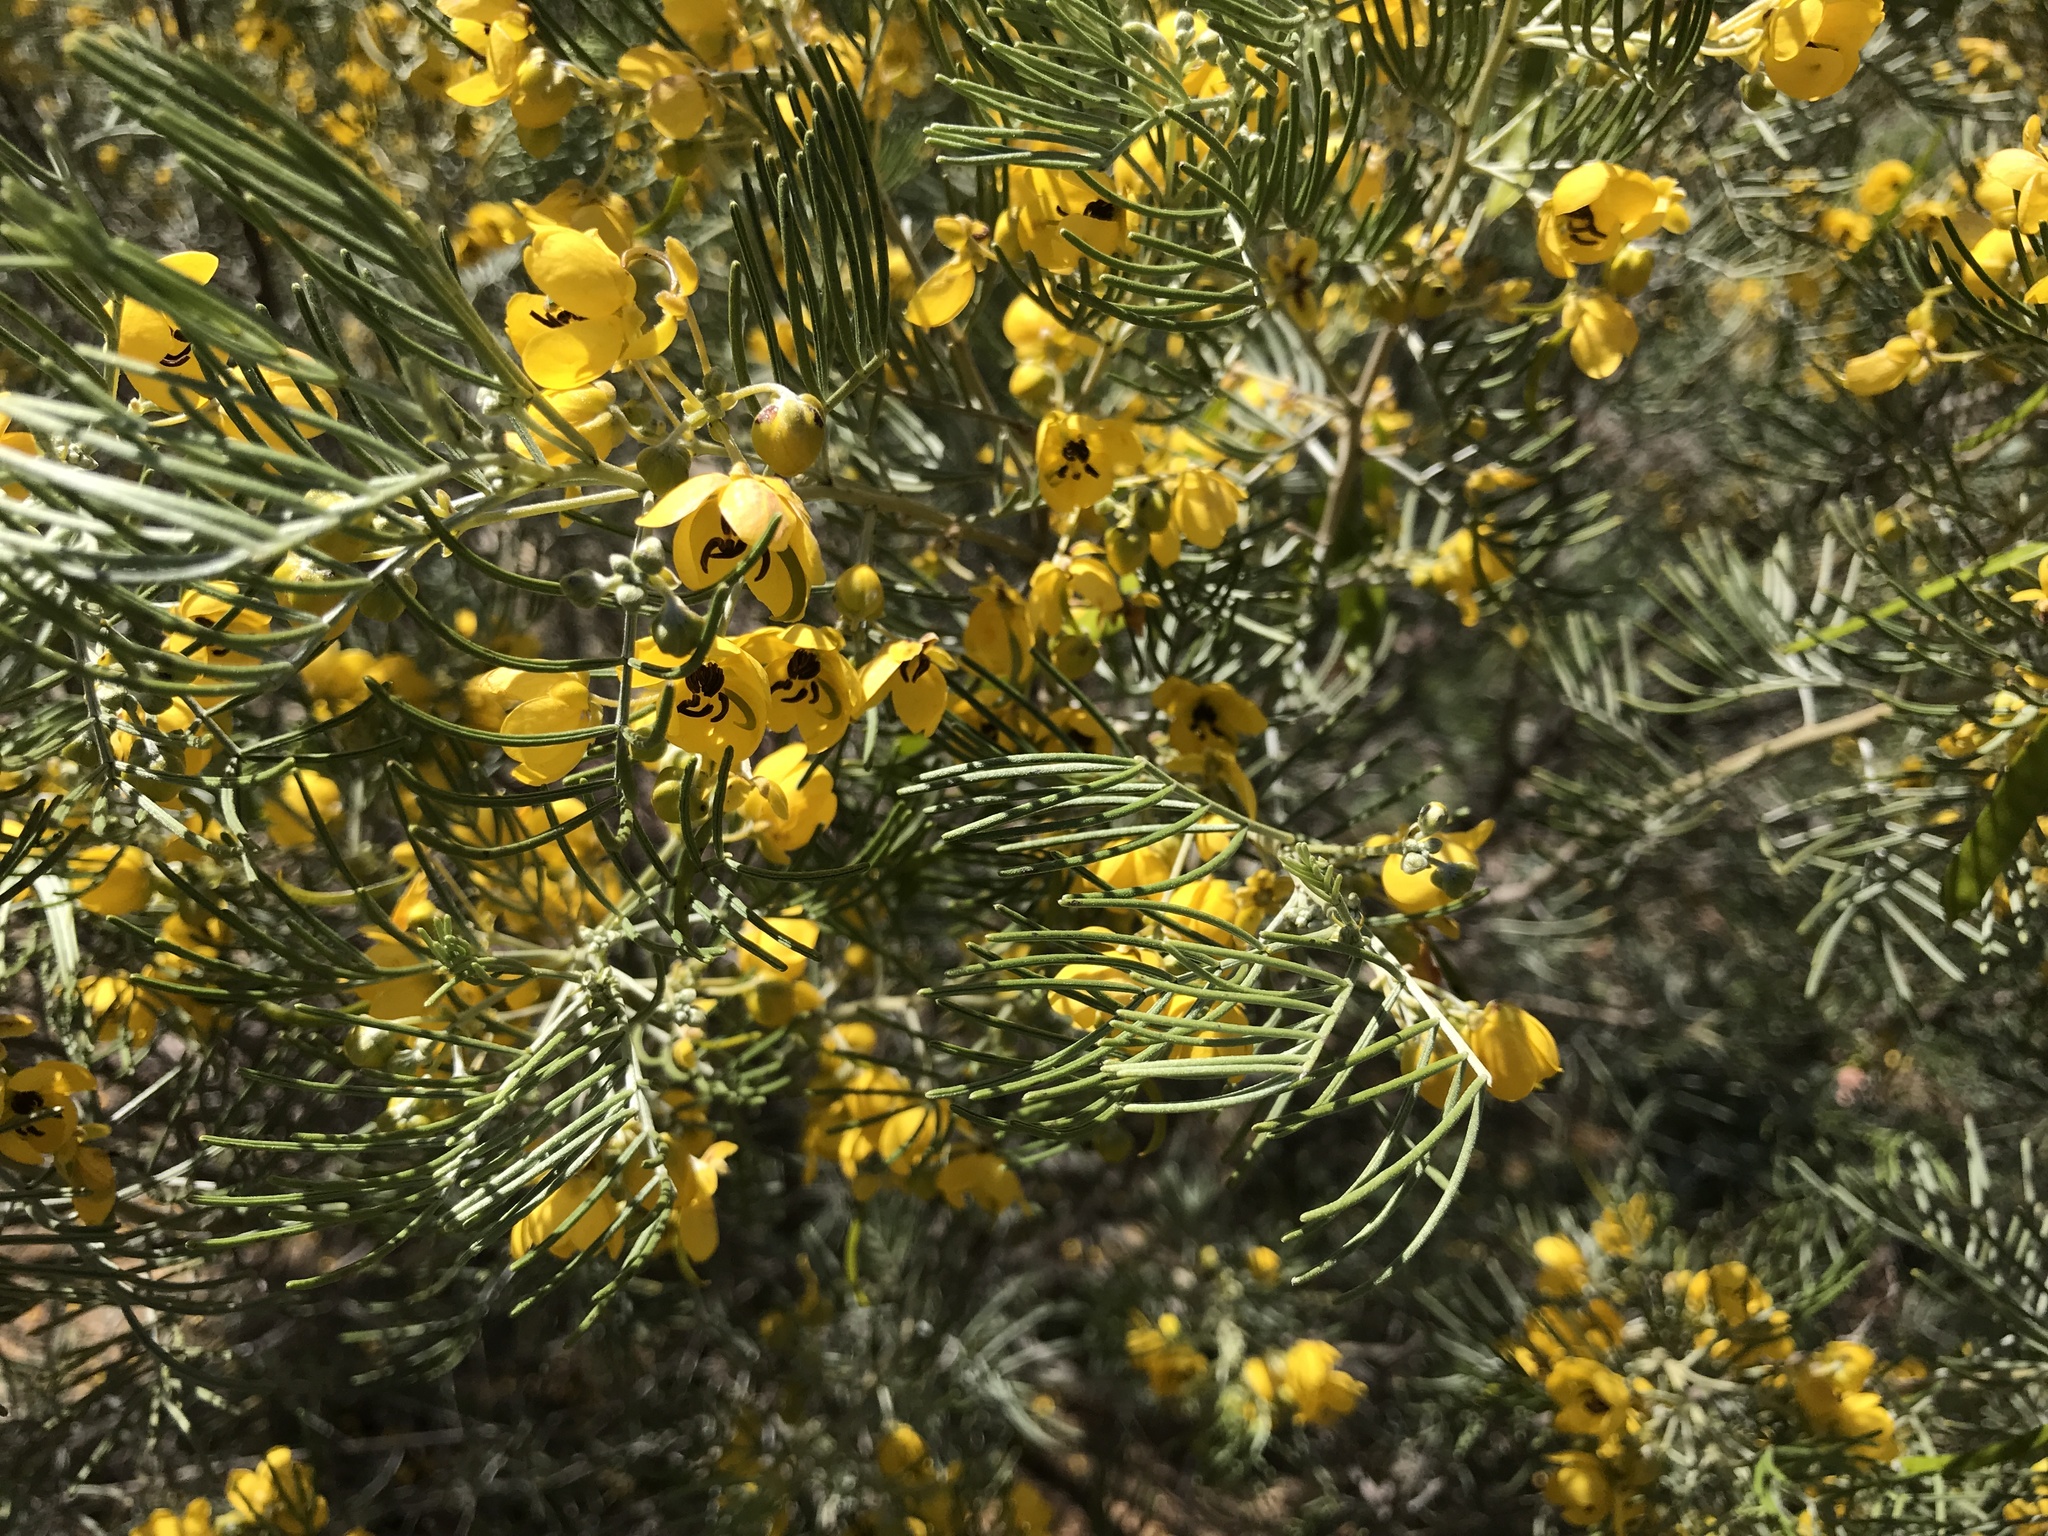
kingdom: Plantae
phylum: Tracheophyta
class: Magnoliopsida
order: Fabales
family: Fabaceae
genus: Senna
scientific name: Senna artemisioides
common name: Burnt-leaved acacia
